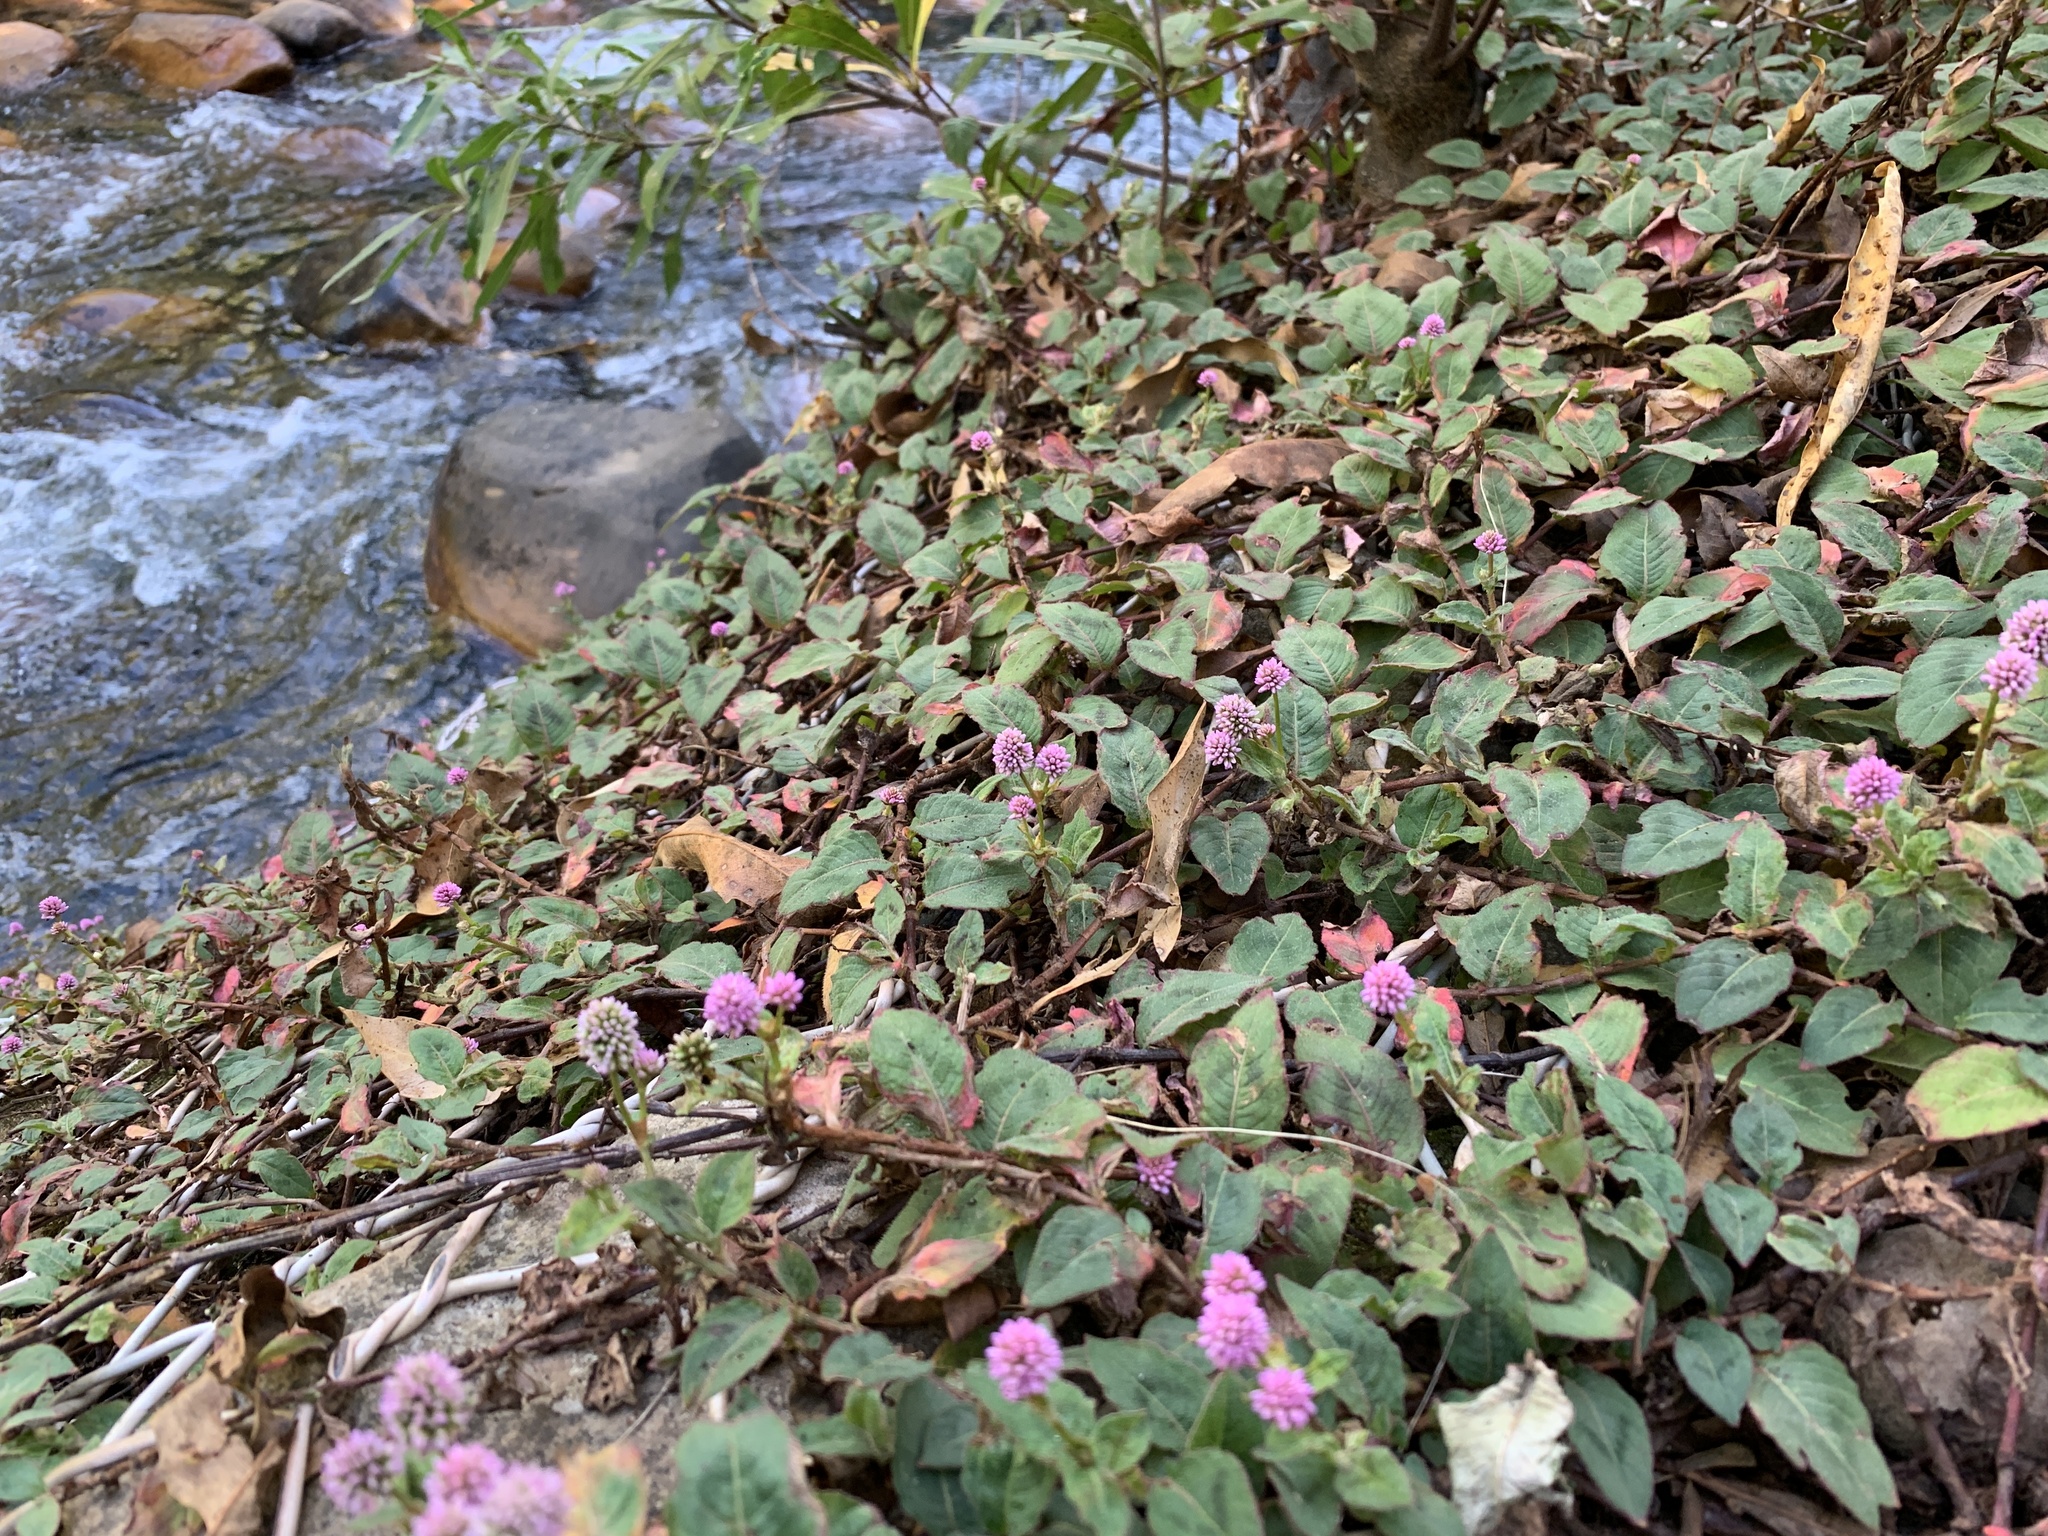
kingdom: Plantae
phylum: Tracheophyta
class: Magnoliopsida
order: Caryophyllales
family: Polygonaceae
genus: Persicaria
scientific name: Persicaria capitata
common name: Pinkhead smartweed
